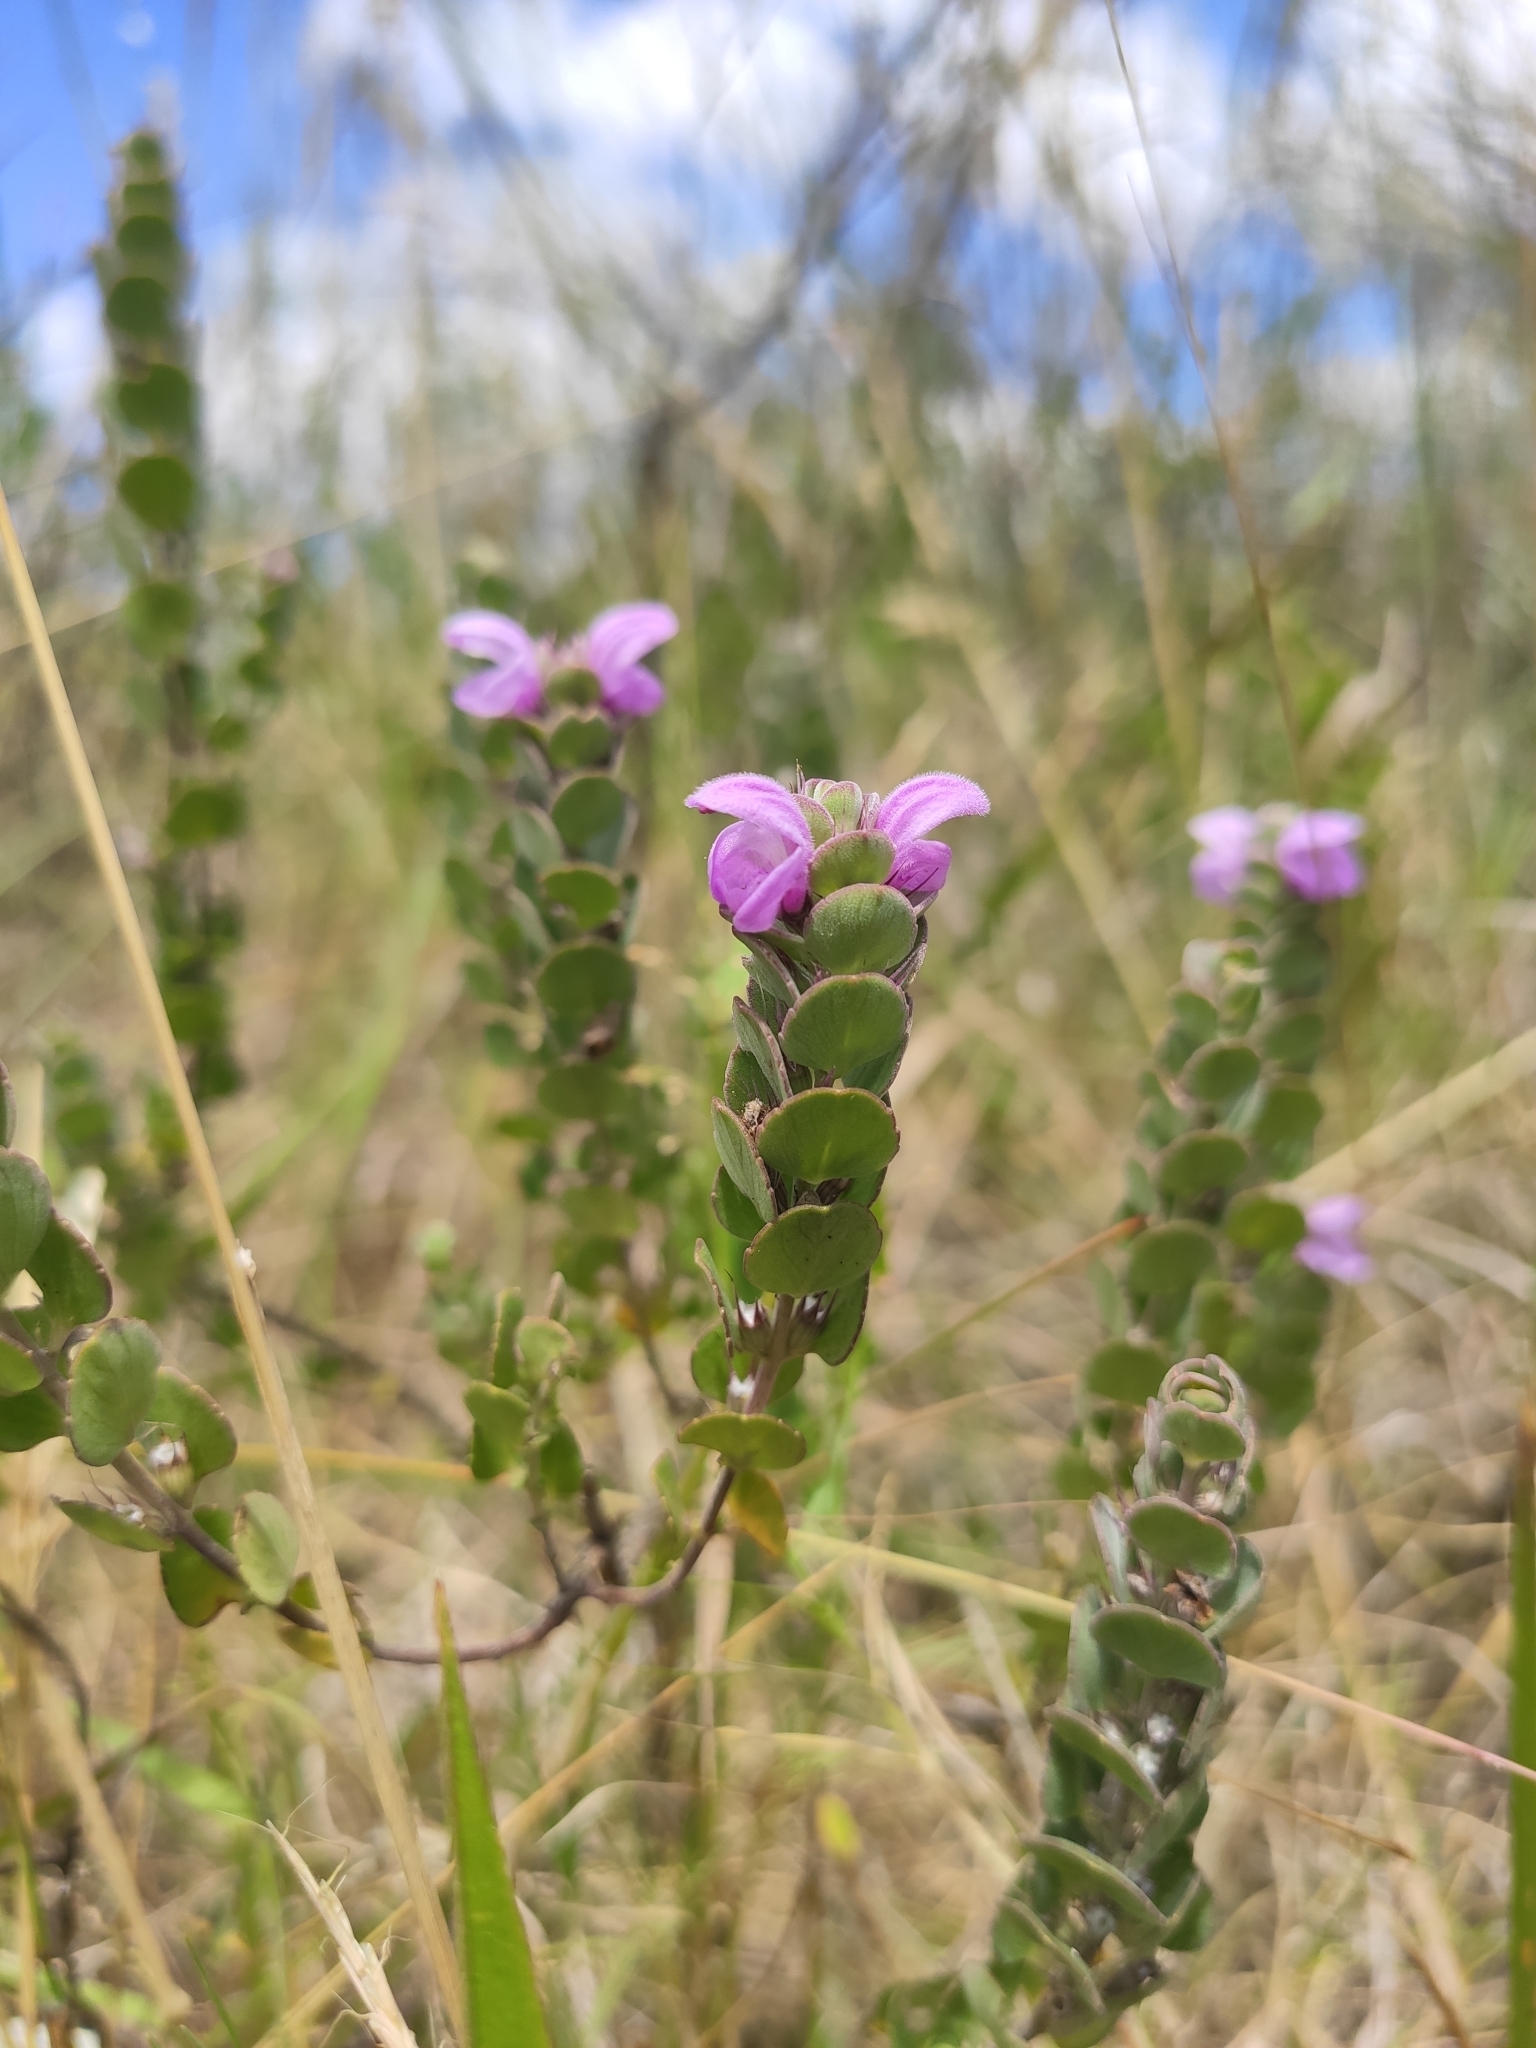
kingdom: Plantae
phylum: Tracheophyta
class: Magnoliopsida
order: Lamiales
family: Lamiaceae
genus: Glechon
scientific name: Glechon marifolia
